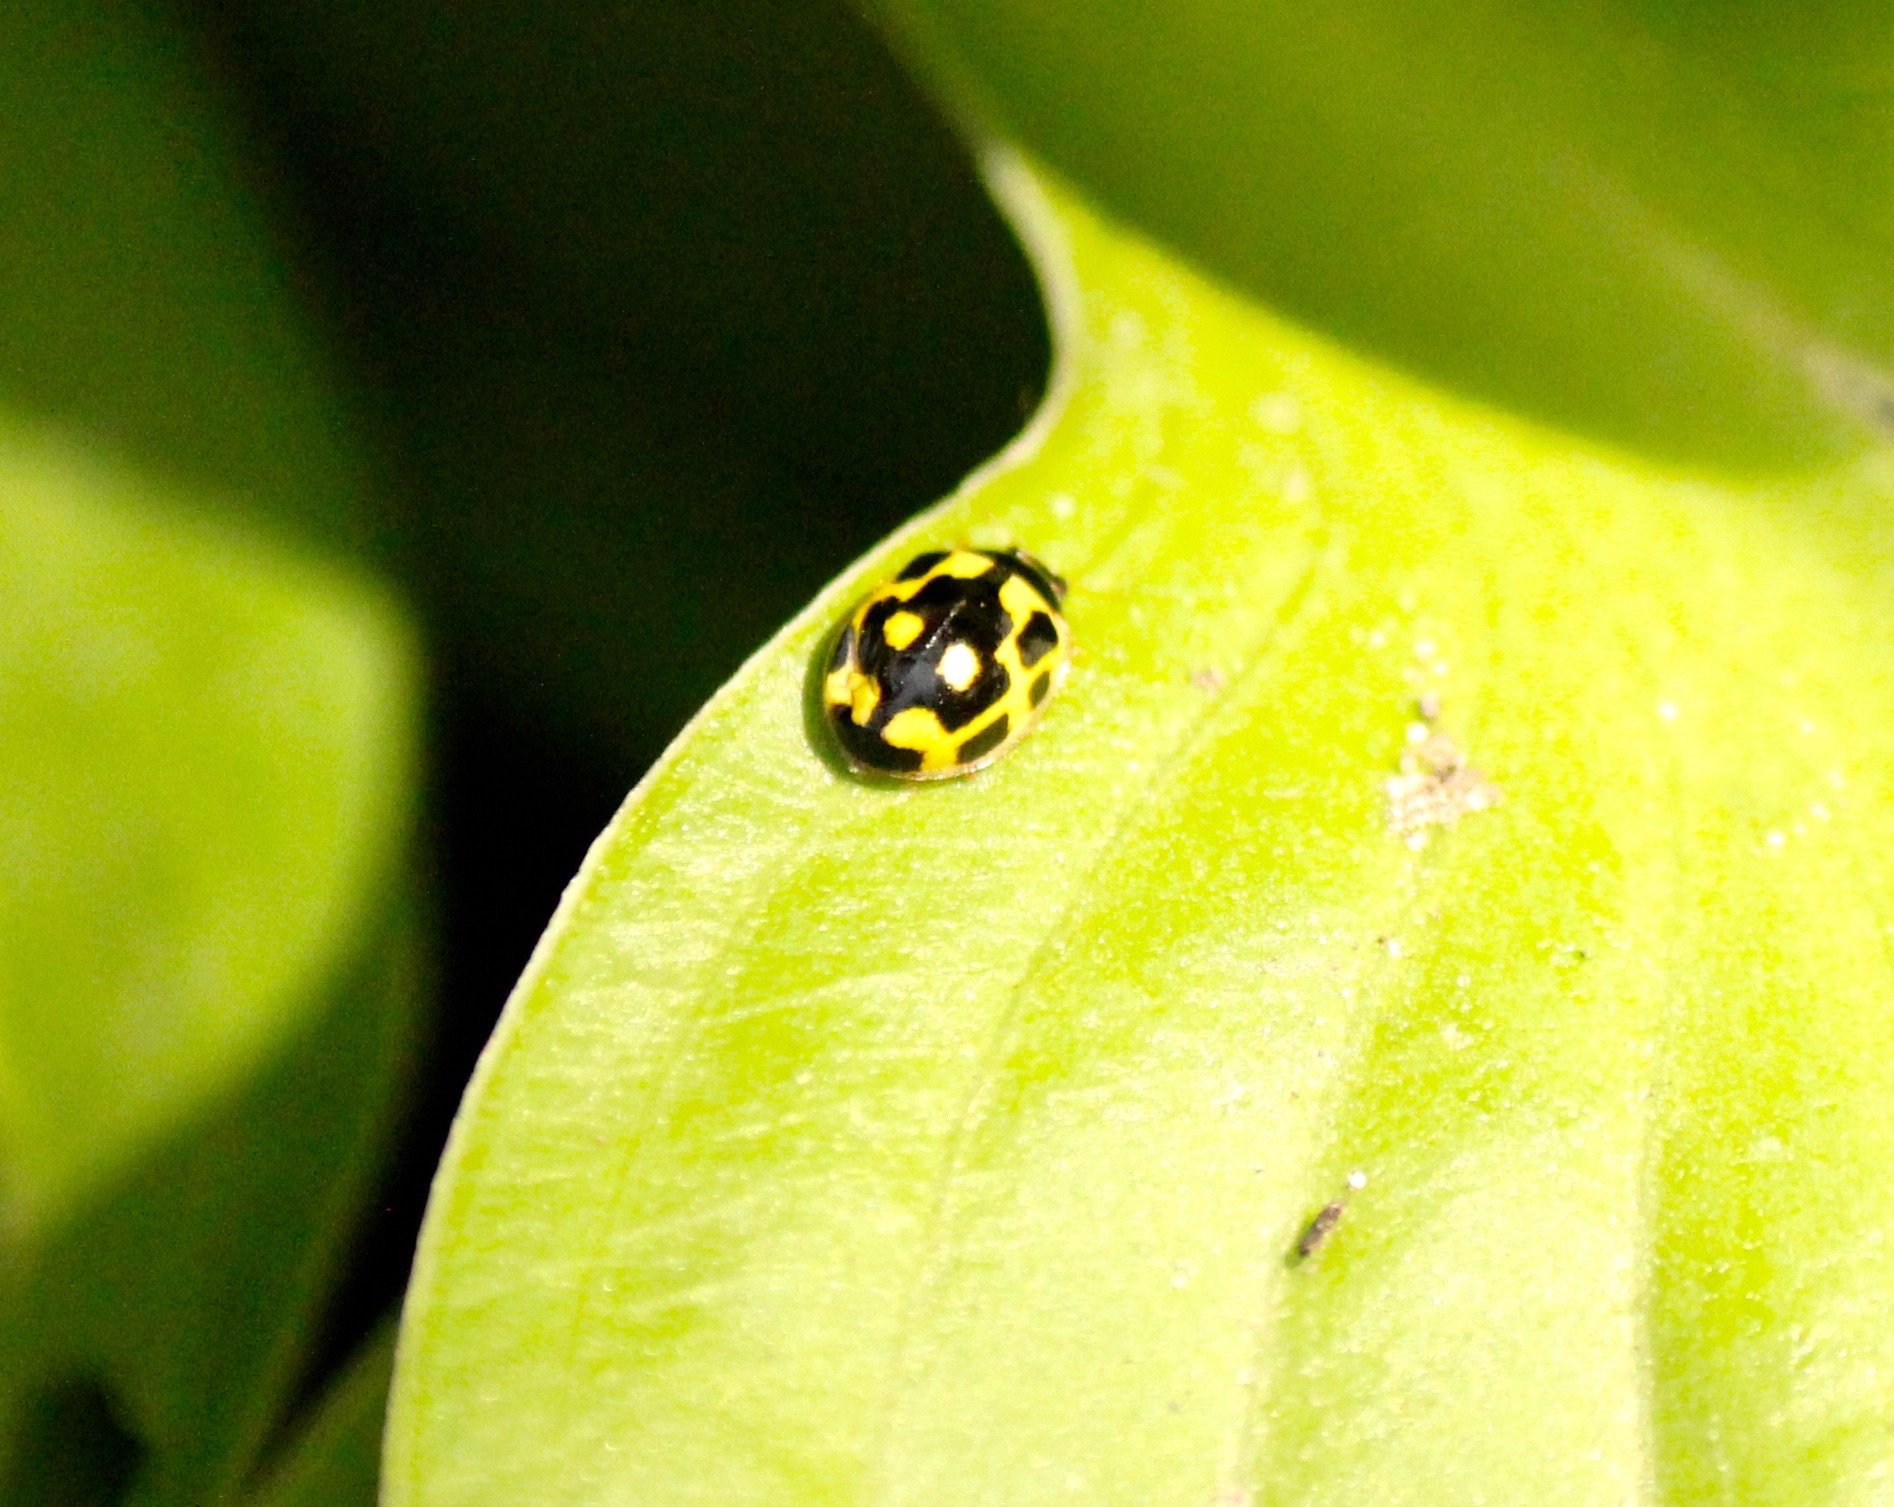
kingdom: Animalia
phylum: Arthropoda
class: Insecta
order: Coleoptera
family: Coccinellidae
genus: Propylaea
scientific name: Propylaea quatuordecimpunctata
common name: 14-spotted ladybird beetle
